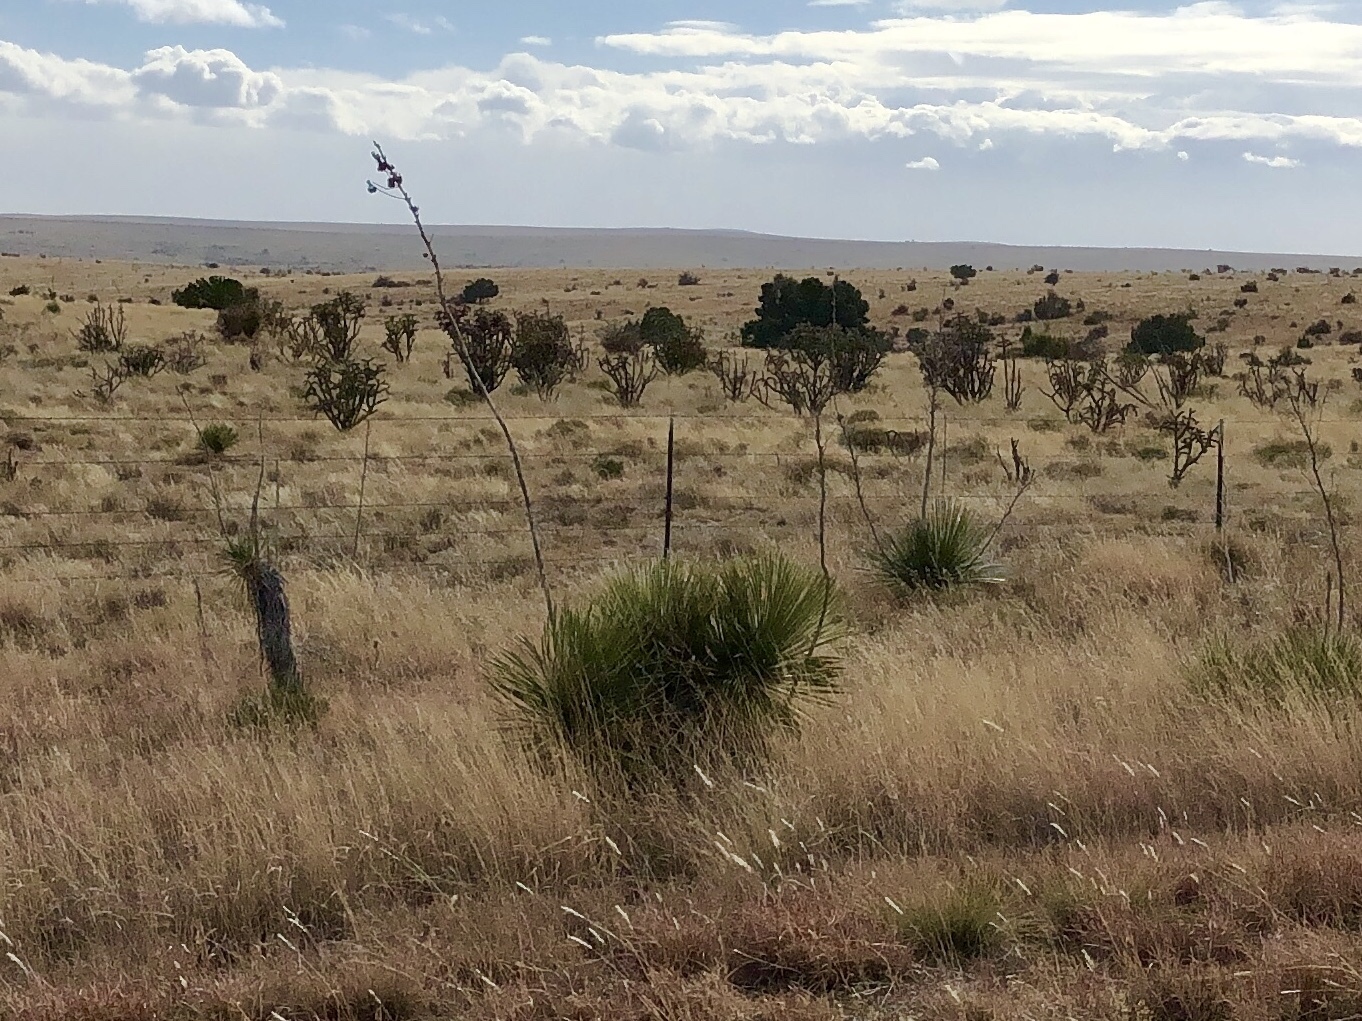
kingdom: Plantae
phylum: Tracheophyta
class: Liliopsida
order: Asparagales
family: Asparagaceae
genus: Yucca
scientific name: Yucca elata
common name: Palmella
